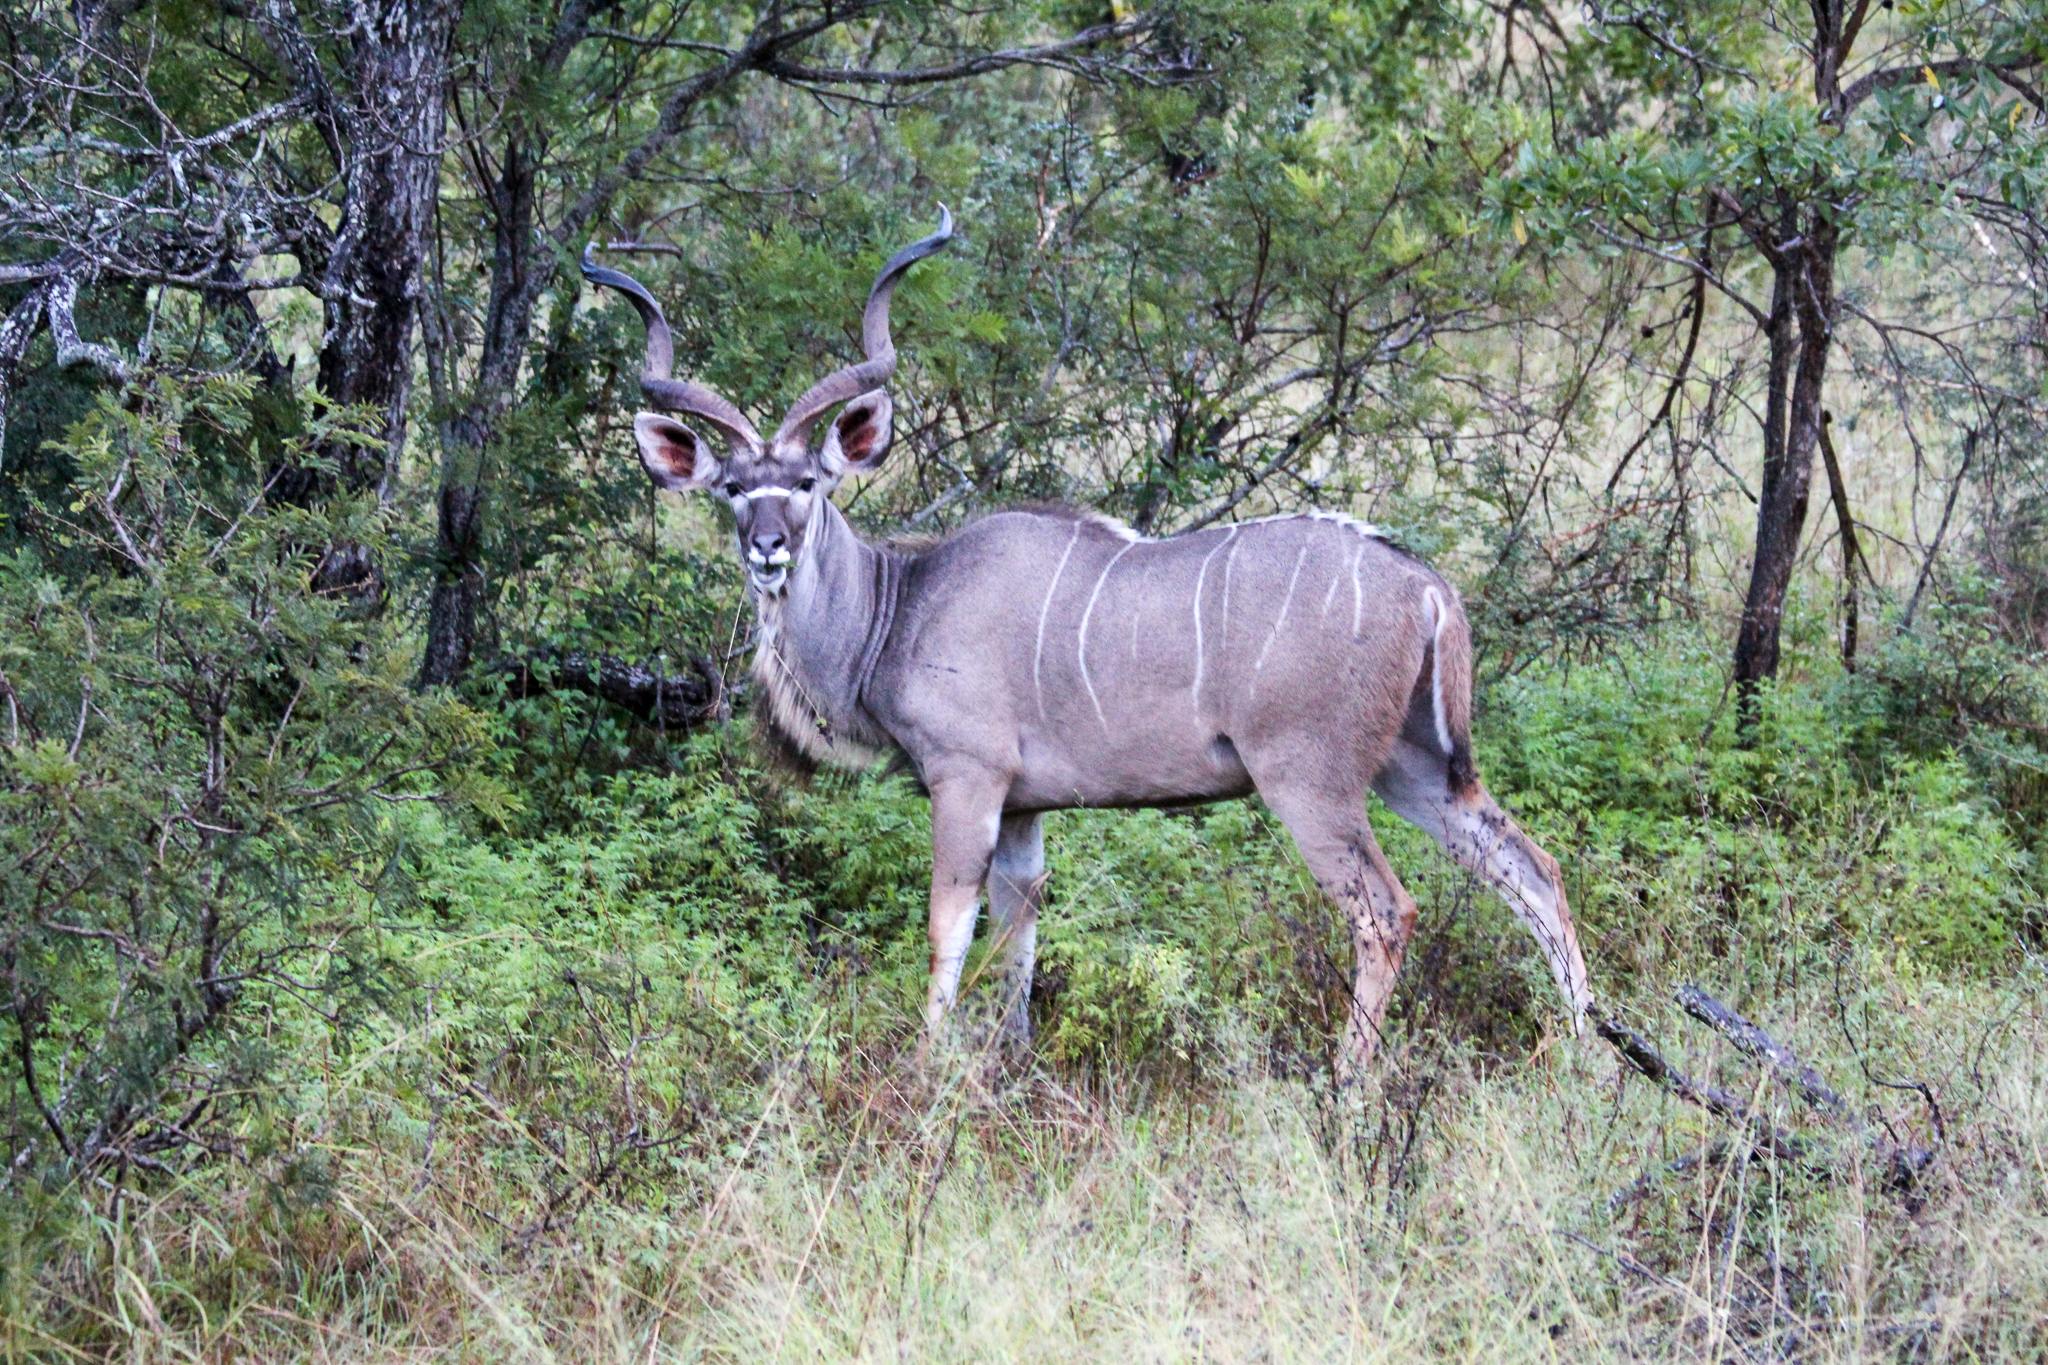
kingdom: Animalia
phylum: Chordata
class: Mammalia
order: Artiodactyla
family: Bovidae
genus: Tragelaphus
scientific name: Tragelaphus strepsiceros
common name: Greater kudu
